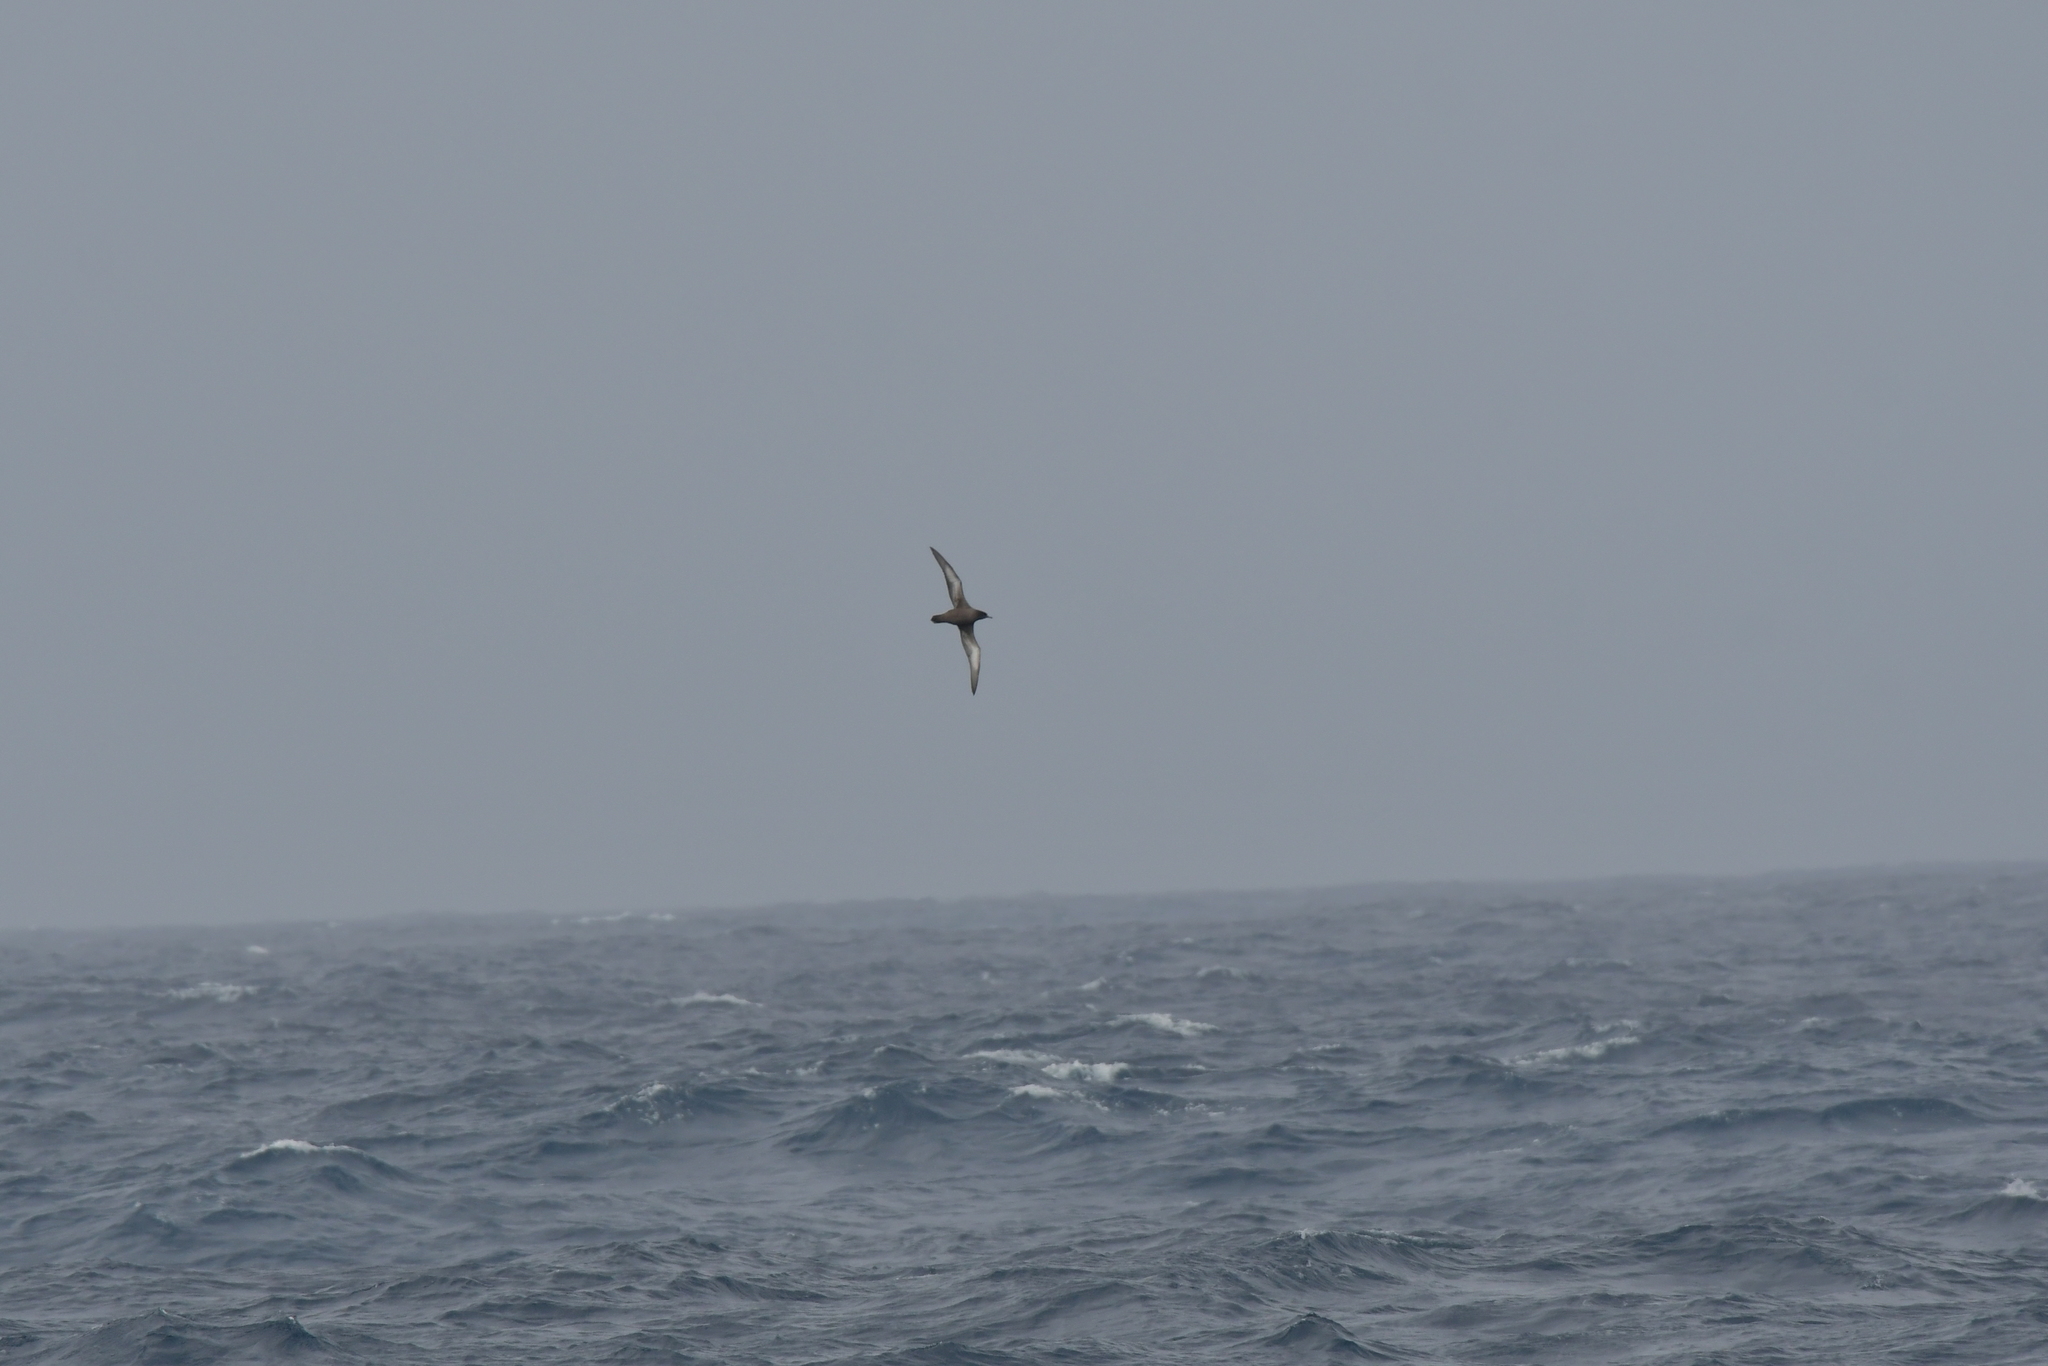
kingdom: Animalia
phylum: Chordata
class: Aves
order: Procellariiformes
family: Procellariidae
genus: Puffinus
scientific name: Puffinus griseus
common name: Sooty shearwater
